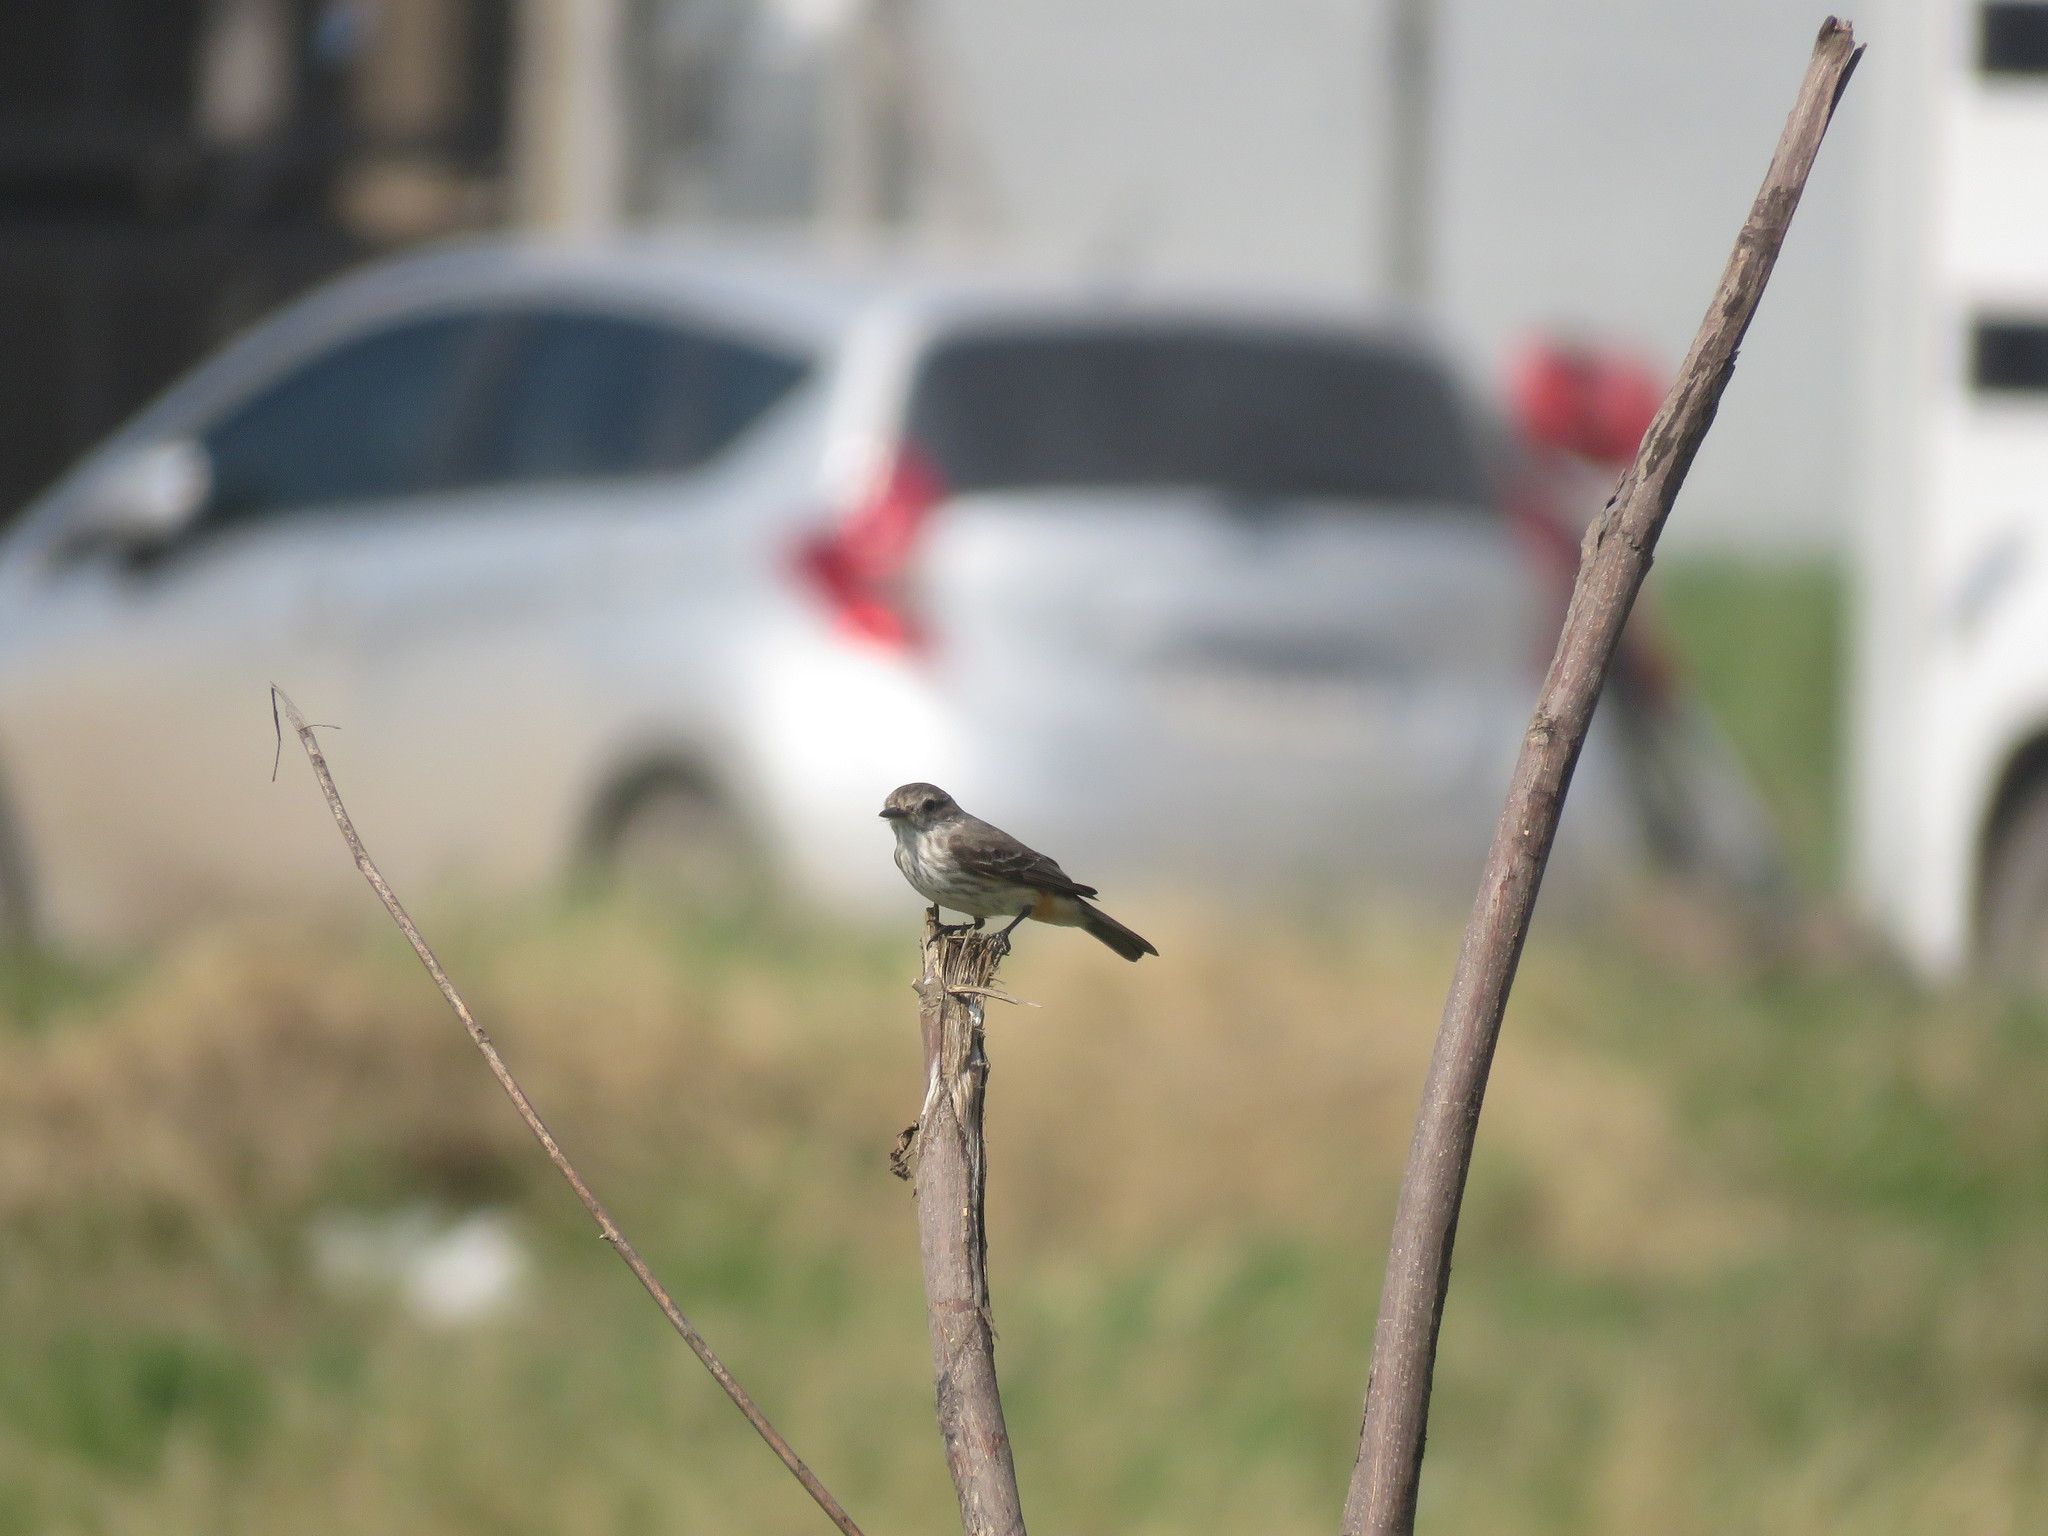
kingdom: Animalia
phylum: Chordata
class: Aves
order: Passeriformes
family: Tyrannidae
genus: Pyrocephalus
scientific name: Pyrocephalus rubinus
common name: Vermilion flycatcher
